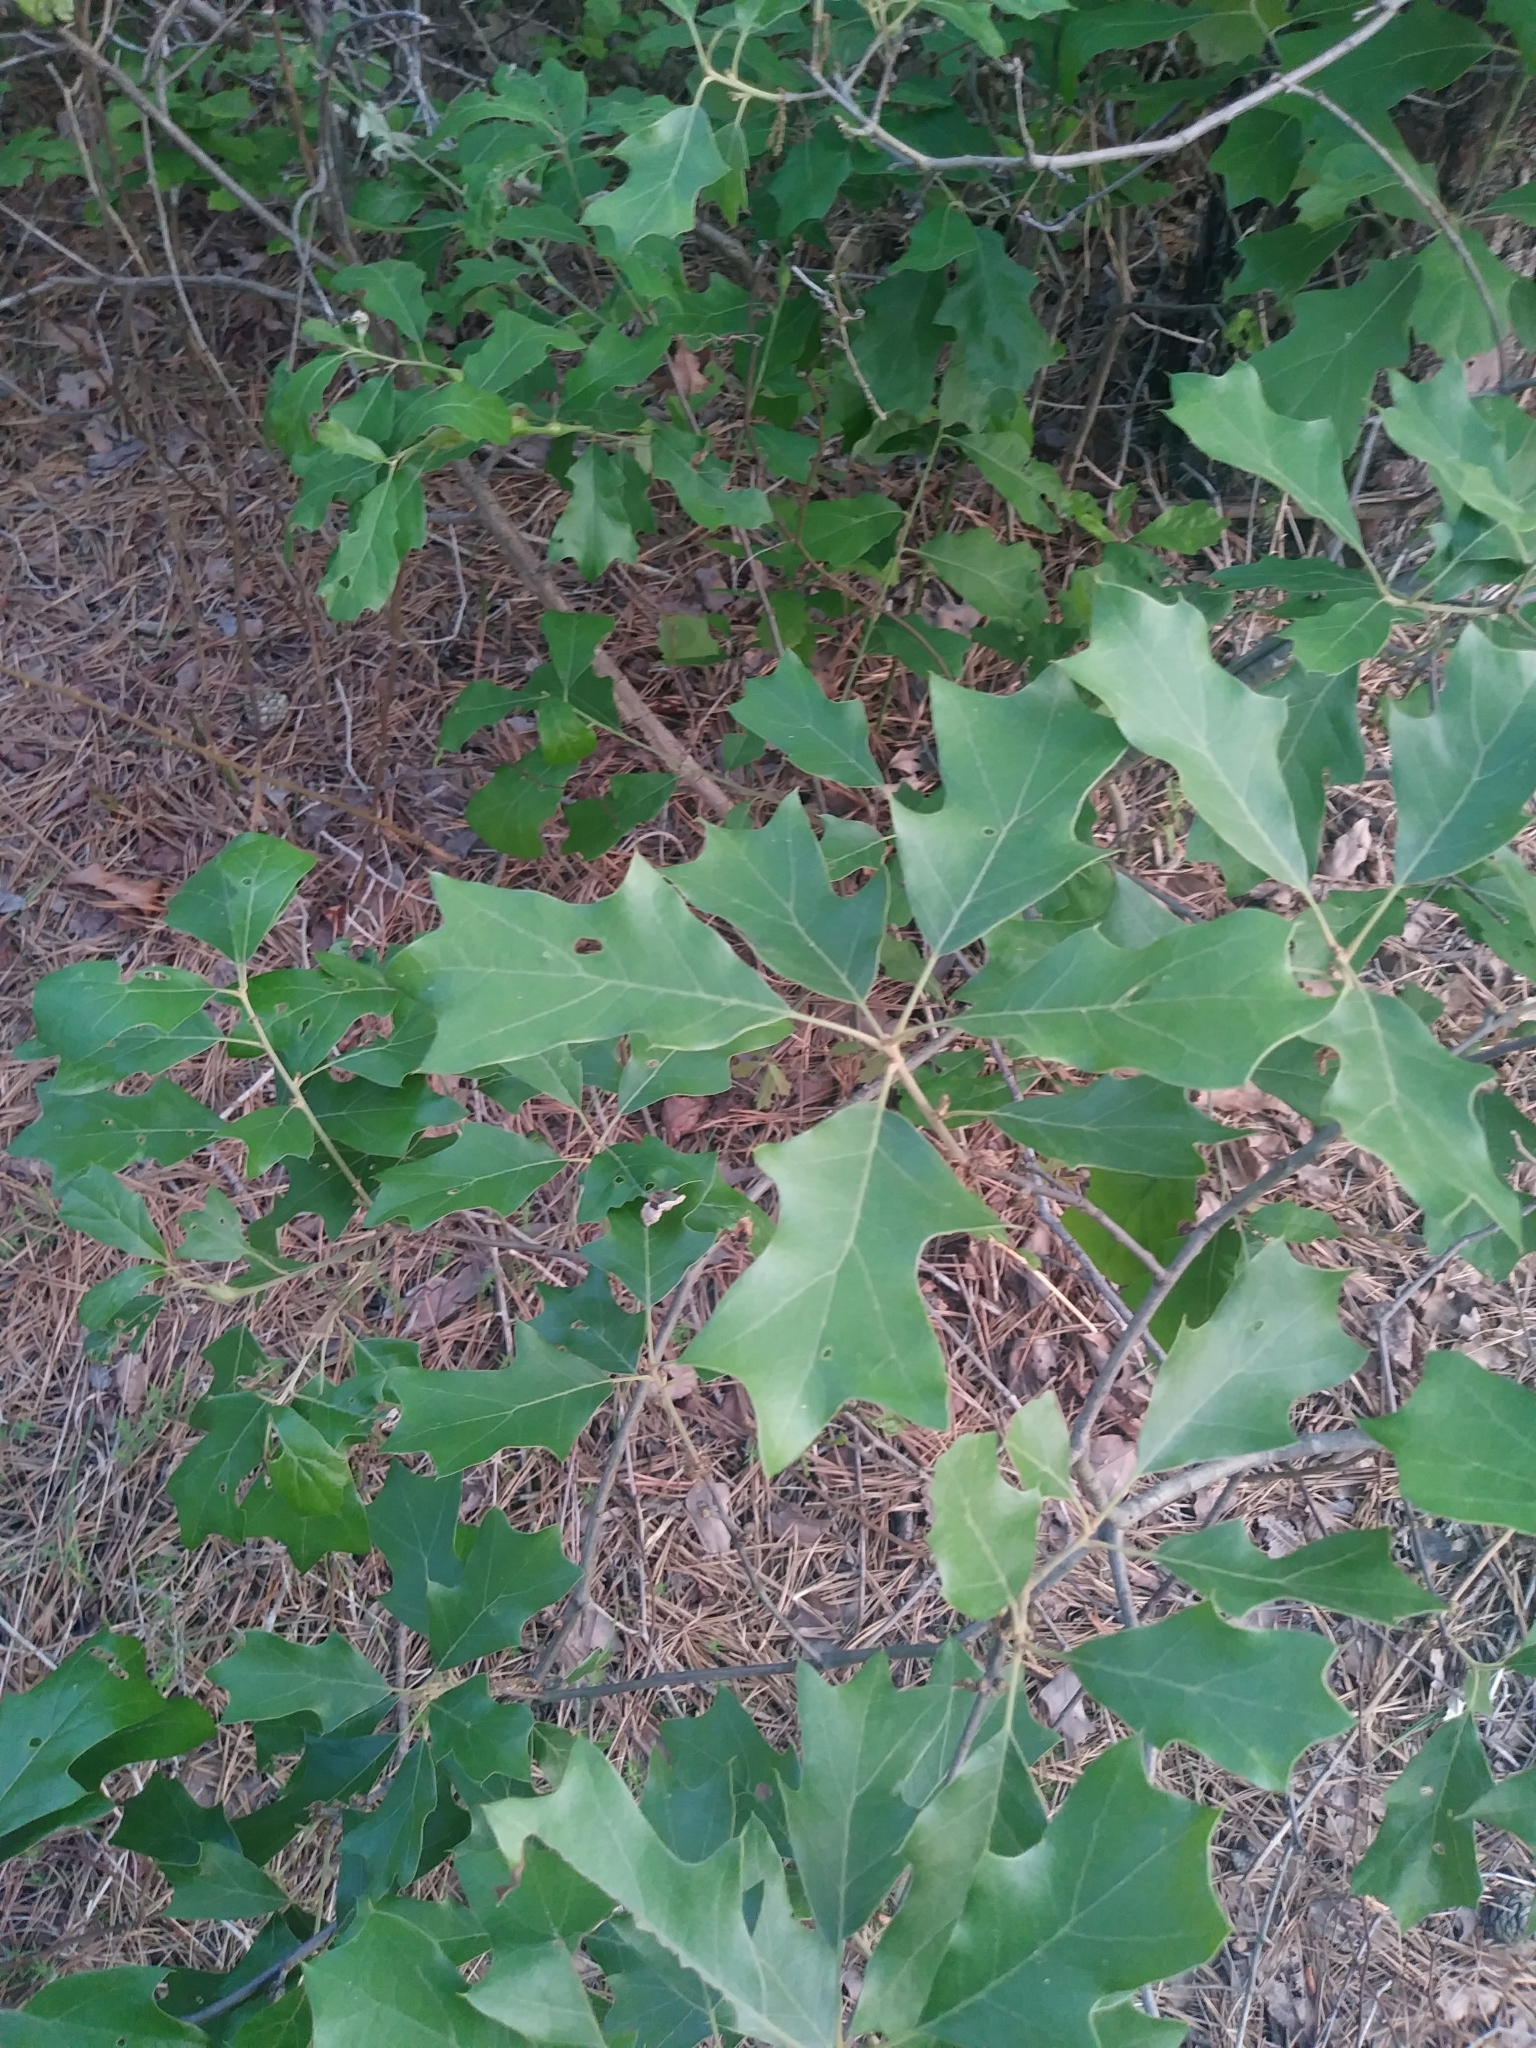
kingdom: Plantae
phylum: Tracheophyta
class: Magnoliopsida
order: Fagales
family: Fagaceae
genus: Quercus
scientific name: Quercus ilicifolia
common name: Bear oak
